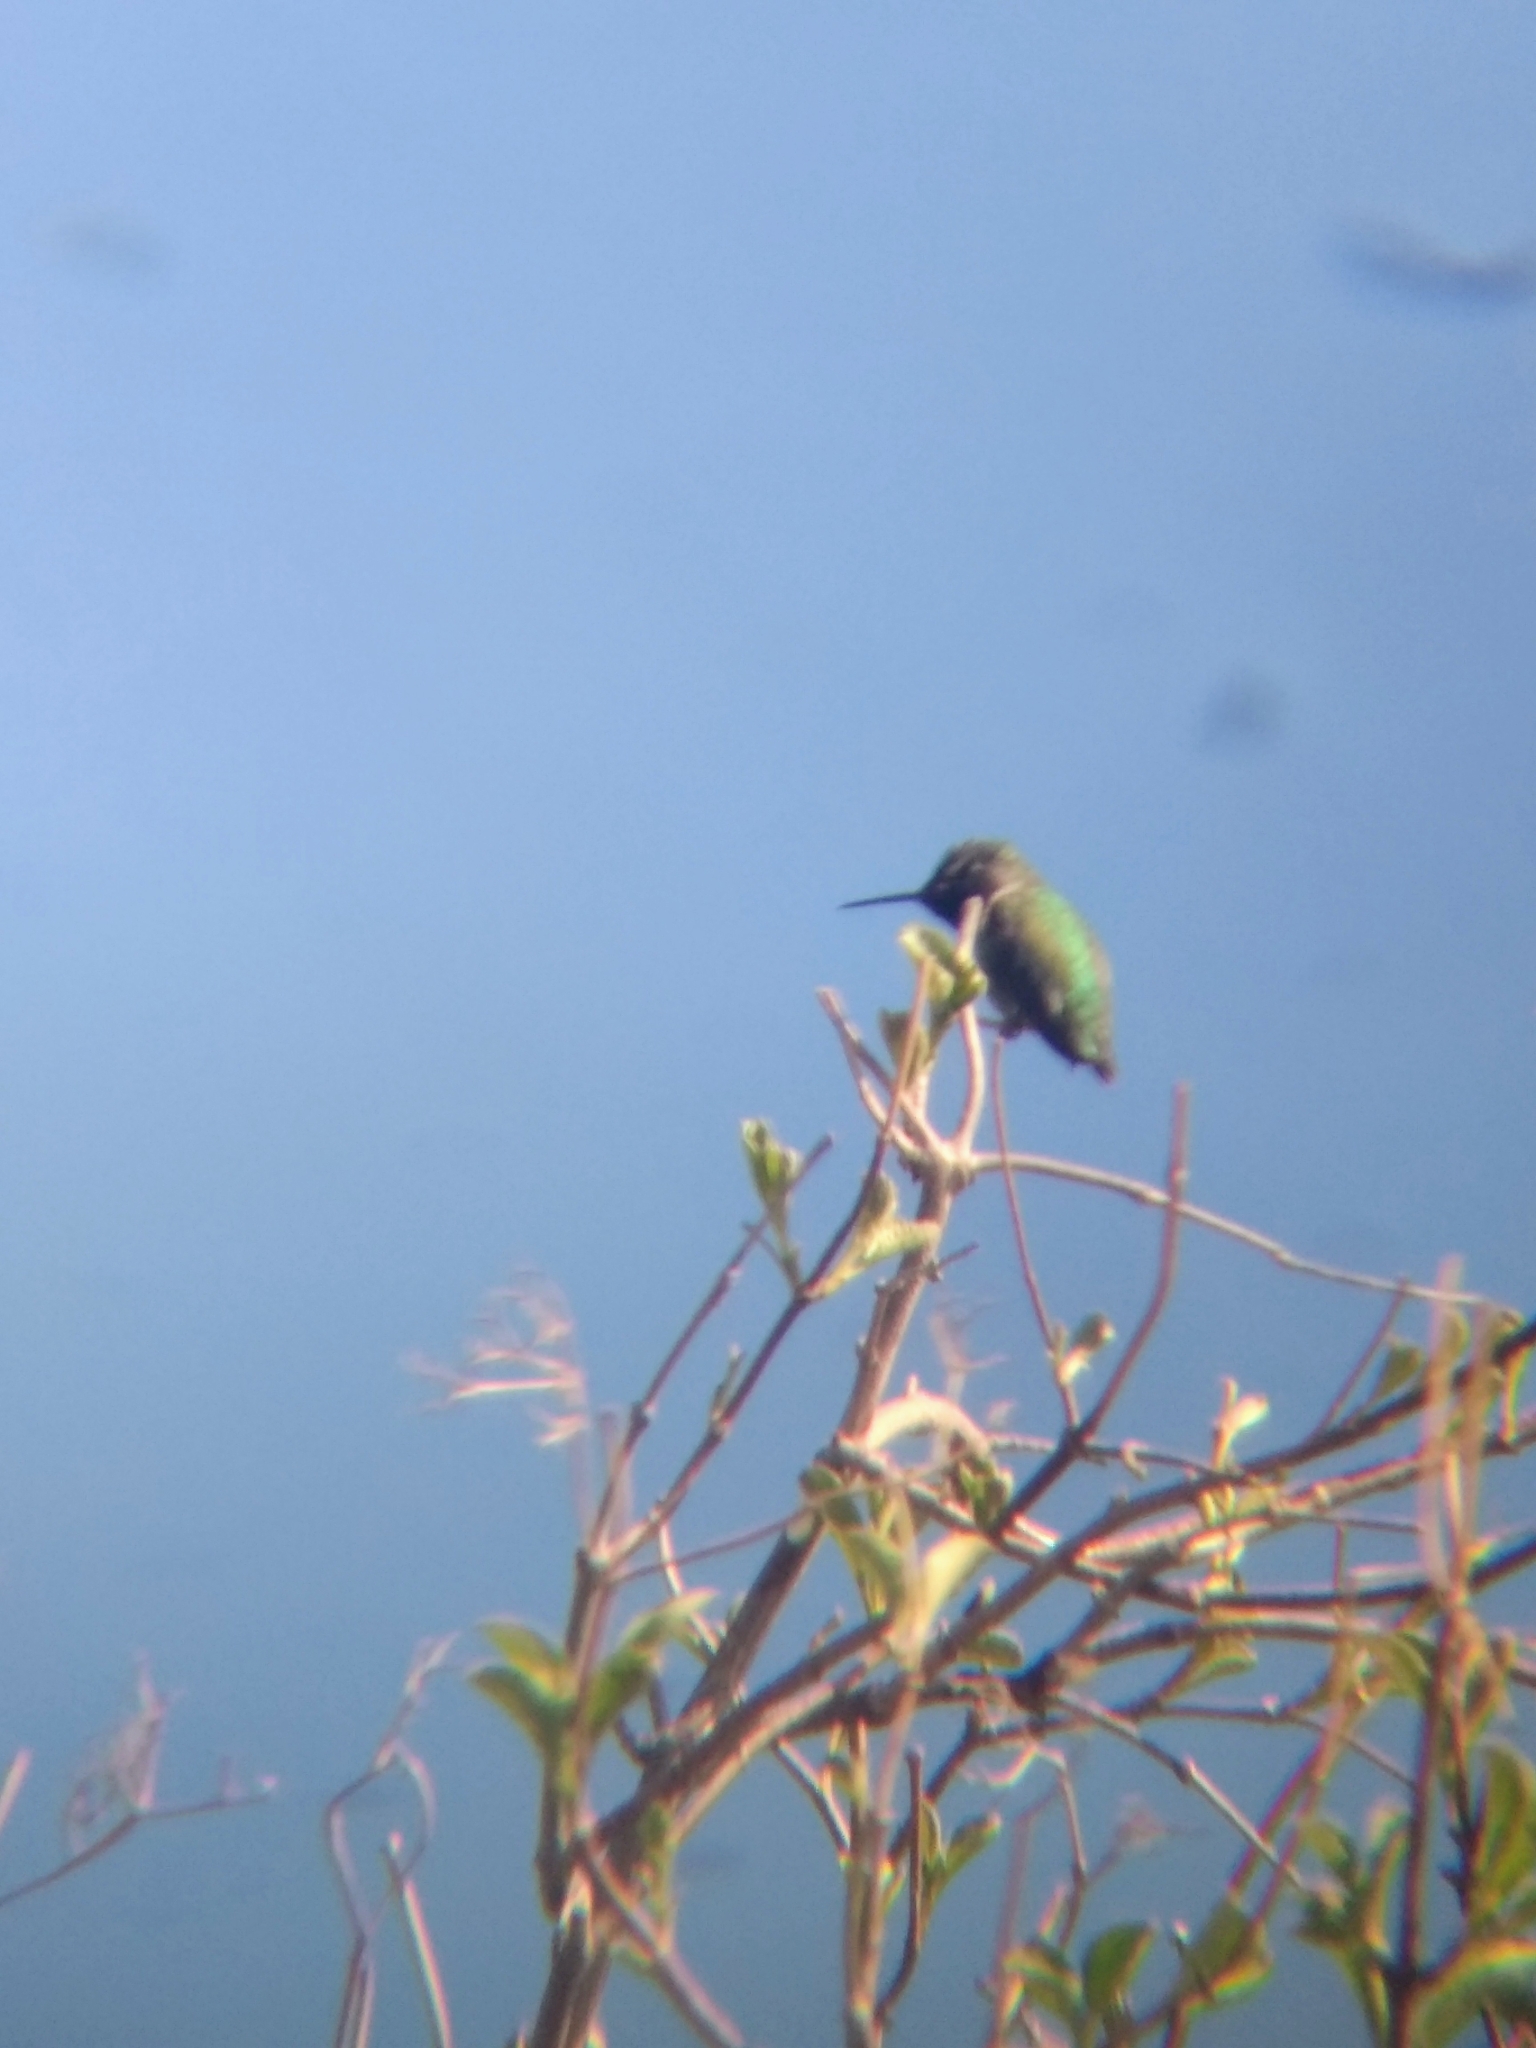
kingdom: Animalia
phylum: Chordata
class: Aves
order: Apodiformes
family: Trochilidae
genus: Calypte
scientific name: Calypte anna
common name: Anna's hummingbird
